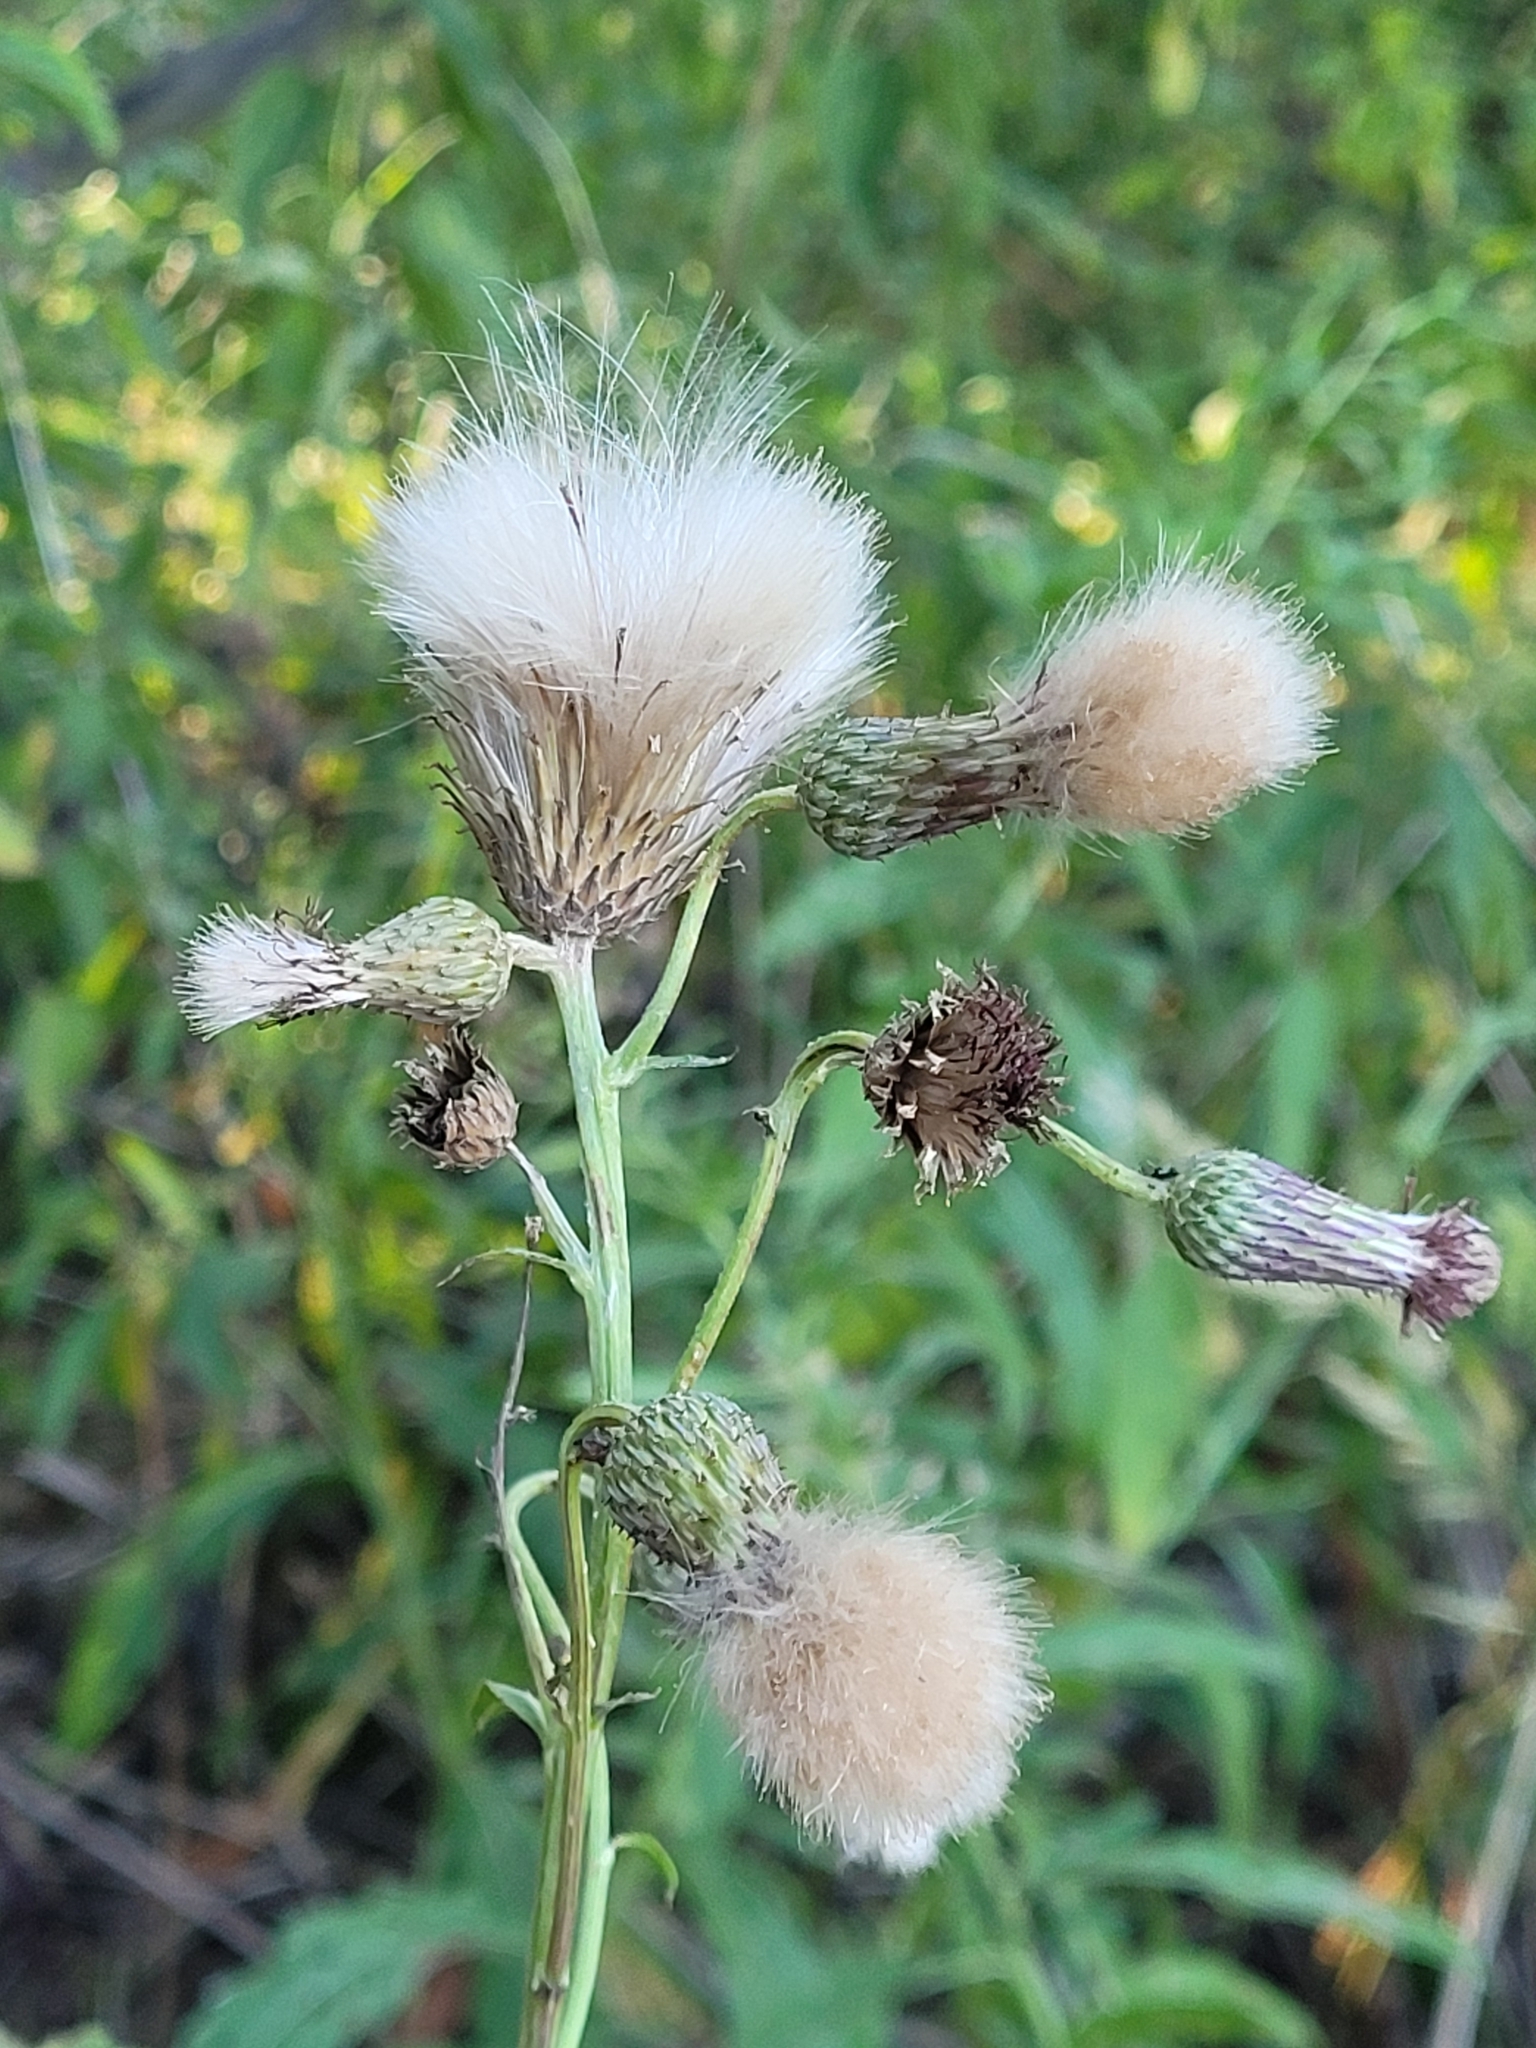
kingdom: Plantae
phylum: Tracheophyta
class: Magnoliopsida
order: Asterales
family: Asteraceae
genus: Cirsium
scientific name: Cirsium arvense
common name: Creeping thistle
